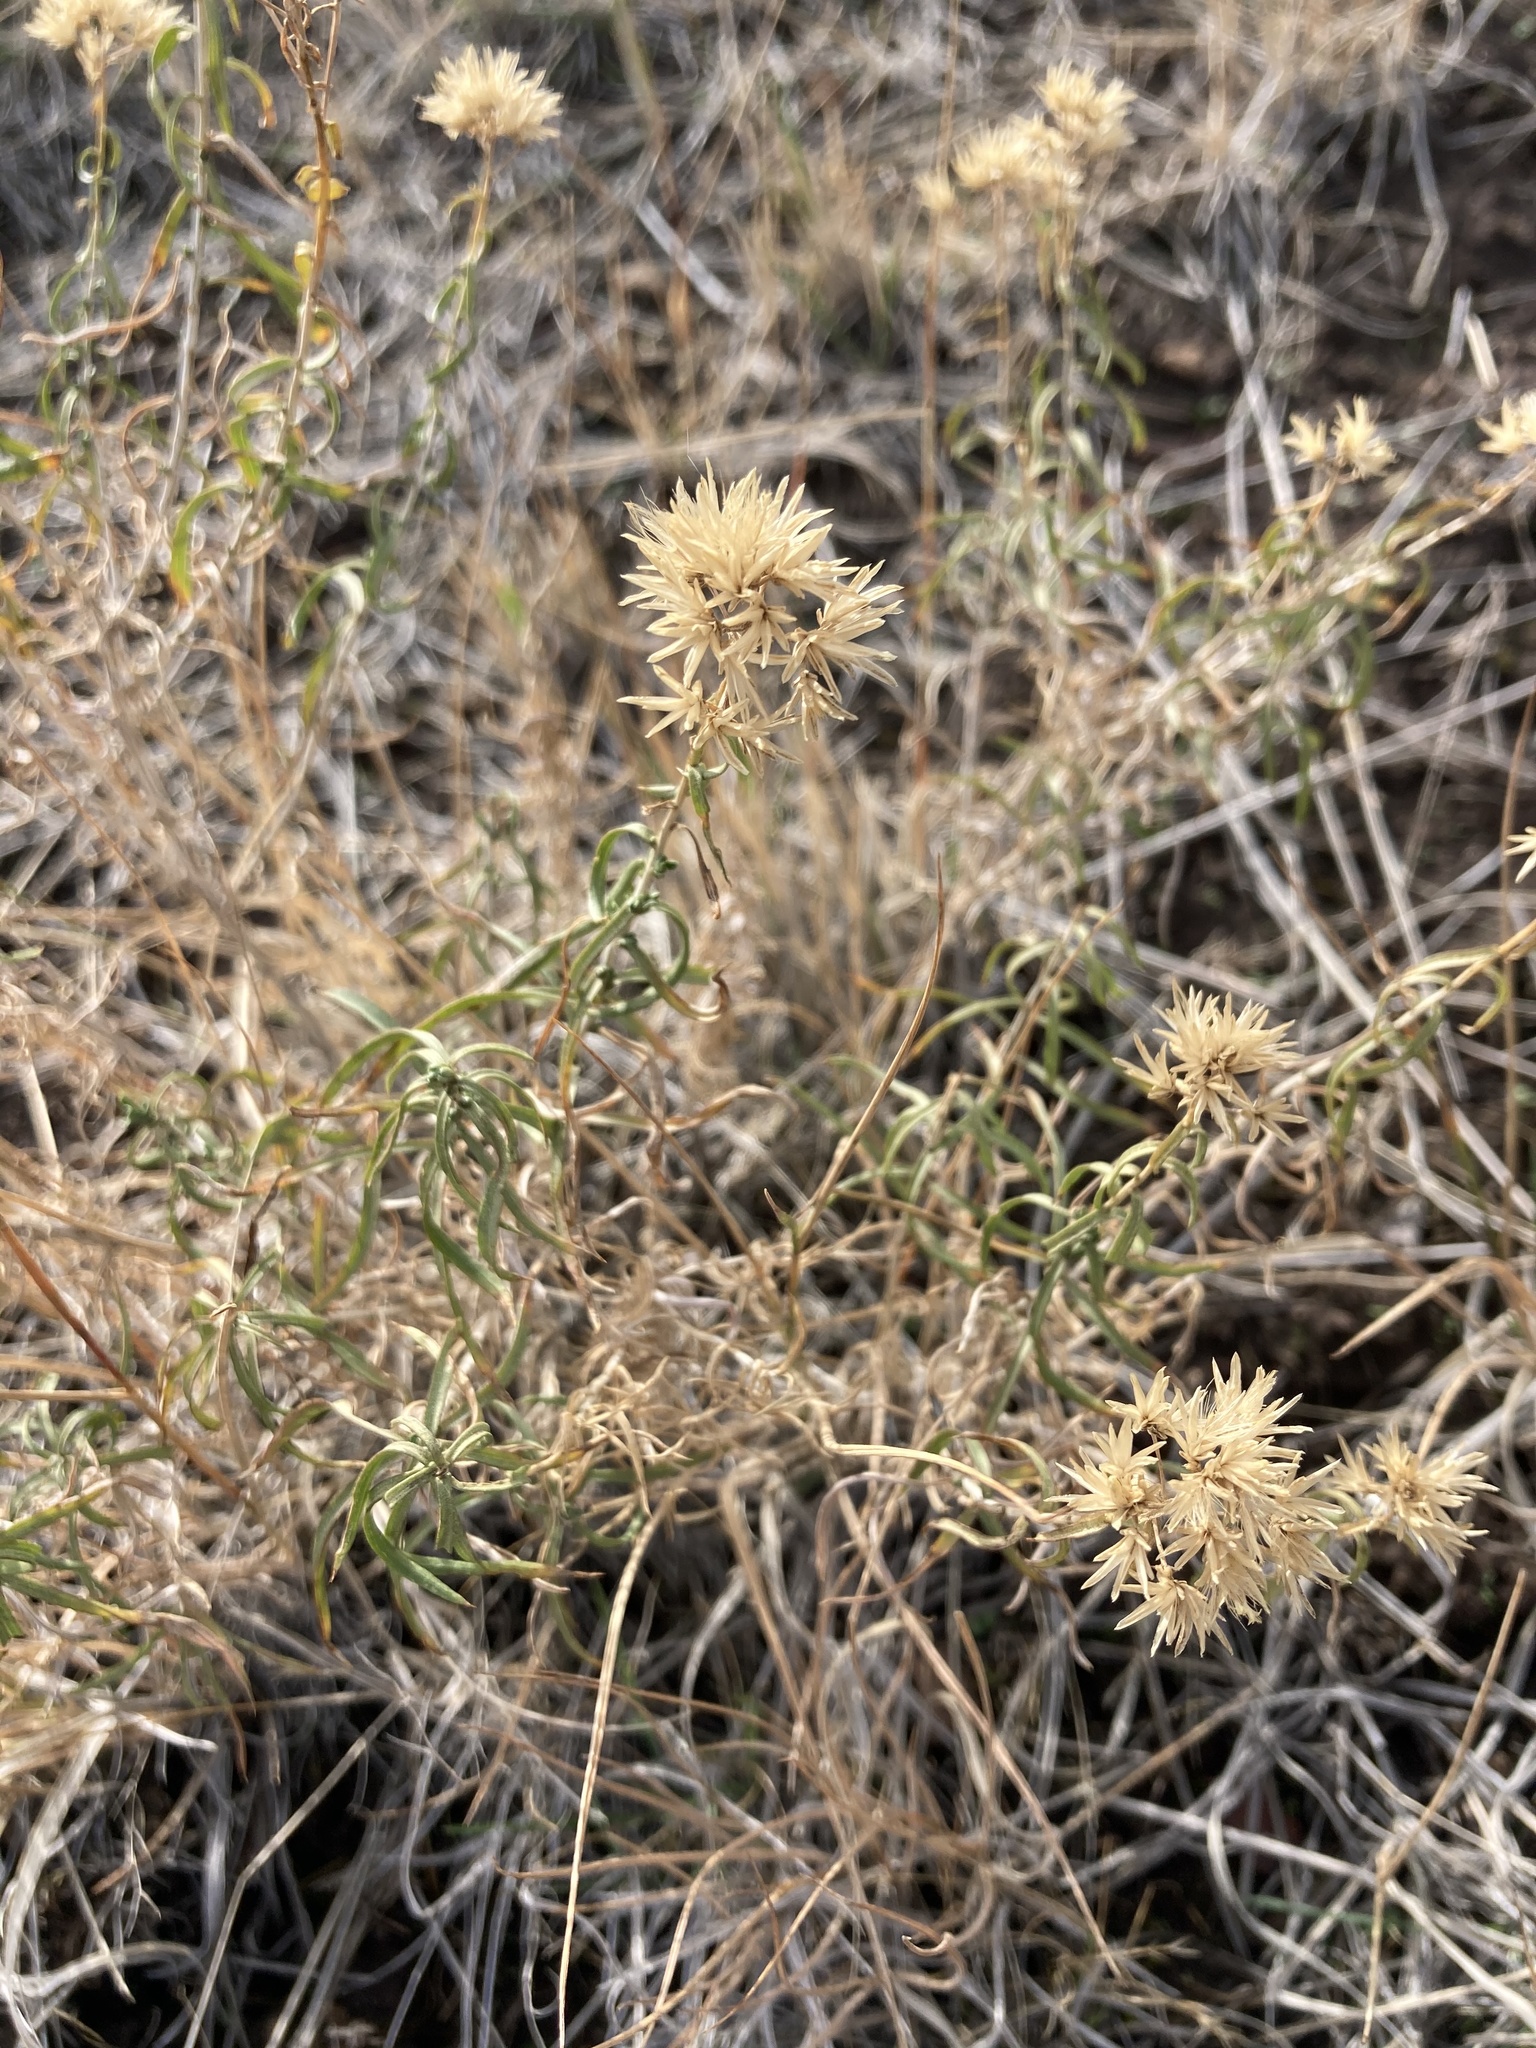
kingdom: Plantae
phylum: Tracheophyta
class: Magnoliopsida
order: Asterales
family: Asteraceae
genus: Chrysothamnus
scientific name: Chrysothamnus viscidiflorus
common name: Yellow rabbitbrush
